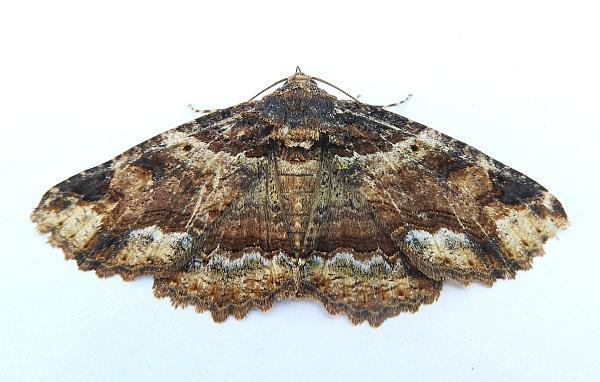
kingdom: Animalia
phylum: Arthropoda
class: Insecta
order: Lepidoptera
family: Erebidae
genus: Zale
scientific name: Zale minerea
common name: Colorful zale moth
